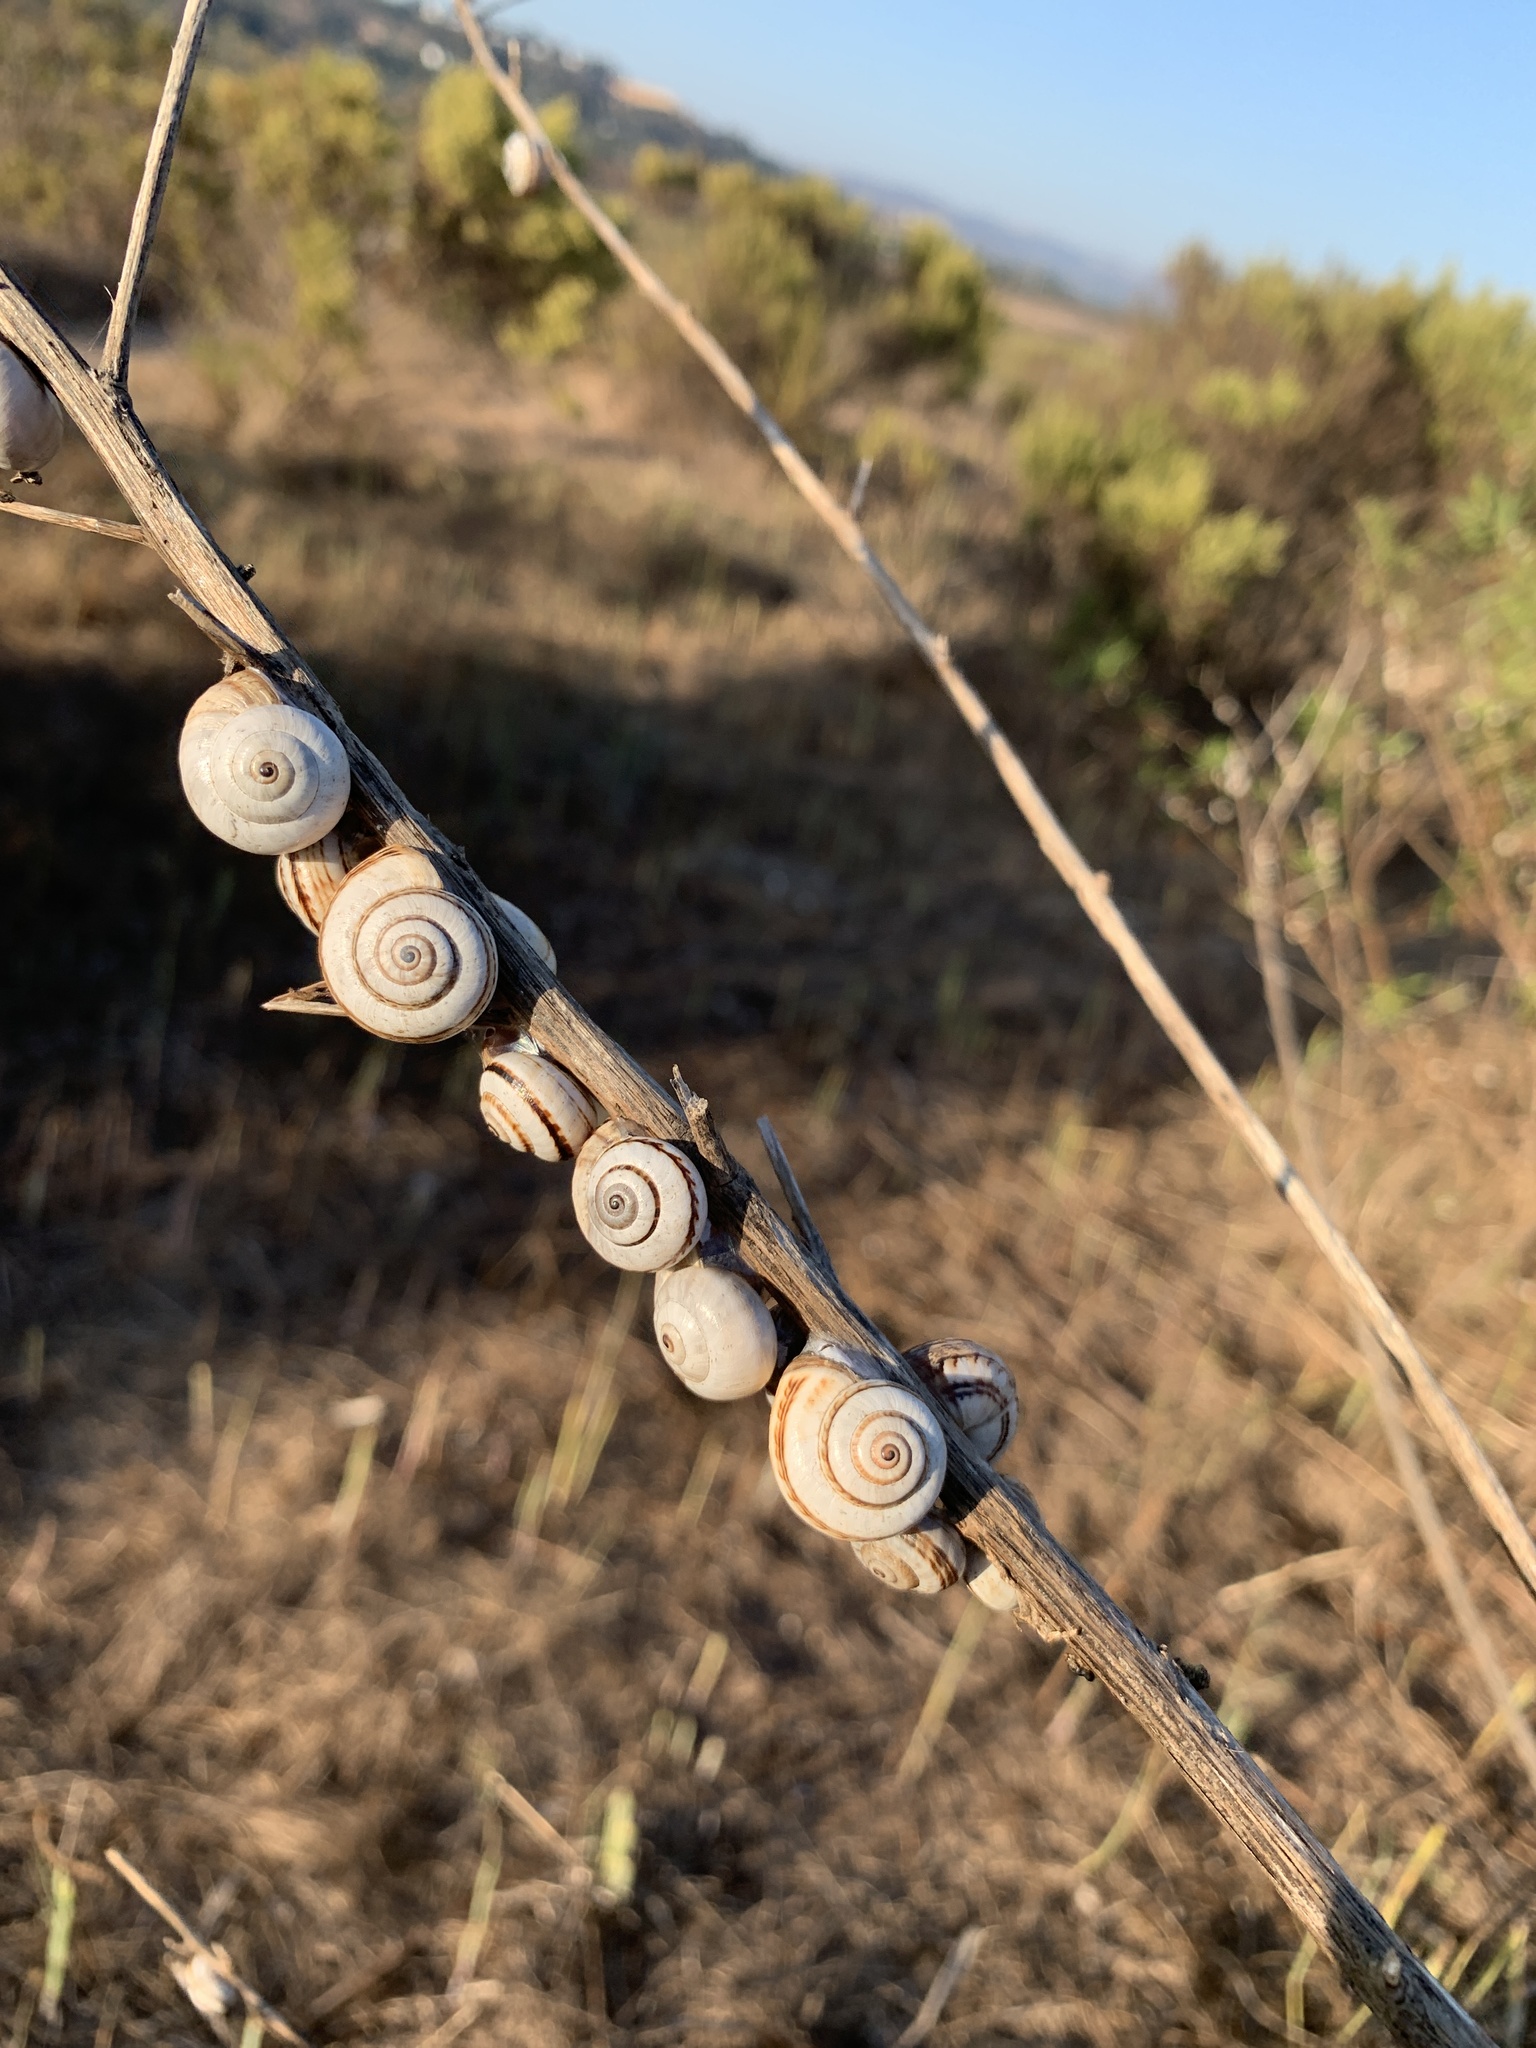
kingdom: Animalia
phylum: Mollusca
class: Gastropoda
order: Stylommatophora
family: Helicidae
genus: Theba
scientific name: Theba pisana
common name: White snail
